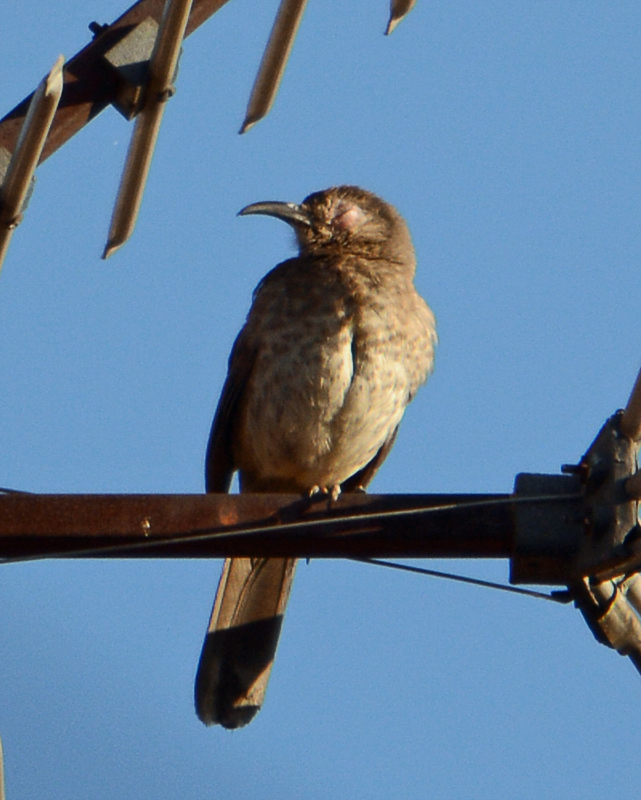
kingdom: Animalia
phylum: Chordata
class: Aves
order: Passeriformes
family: Mimidae
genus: Toxostoma
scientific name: Toxostoma curvirostre
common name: Curve-billed thrasher
